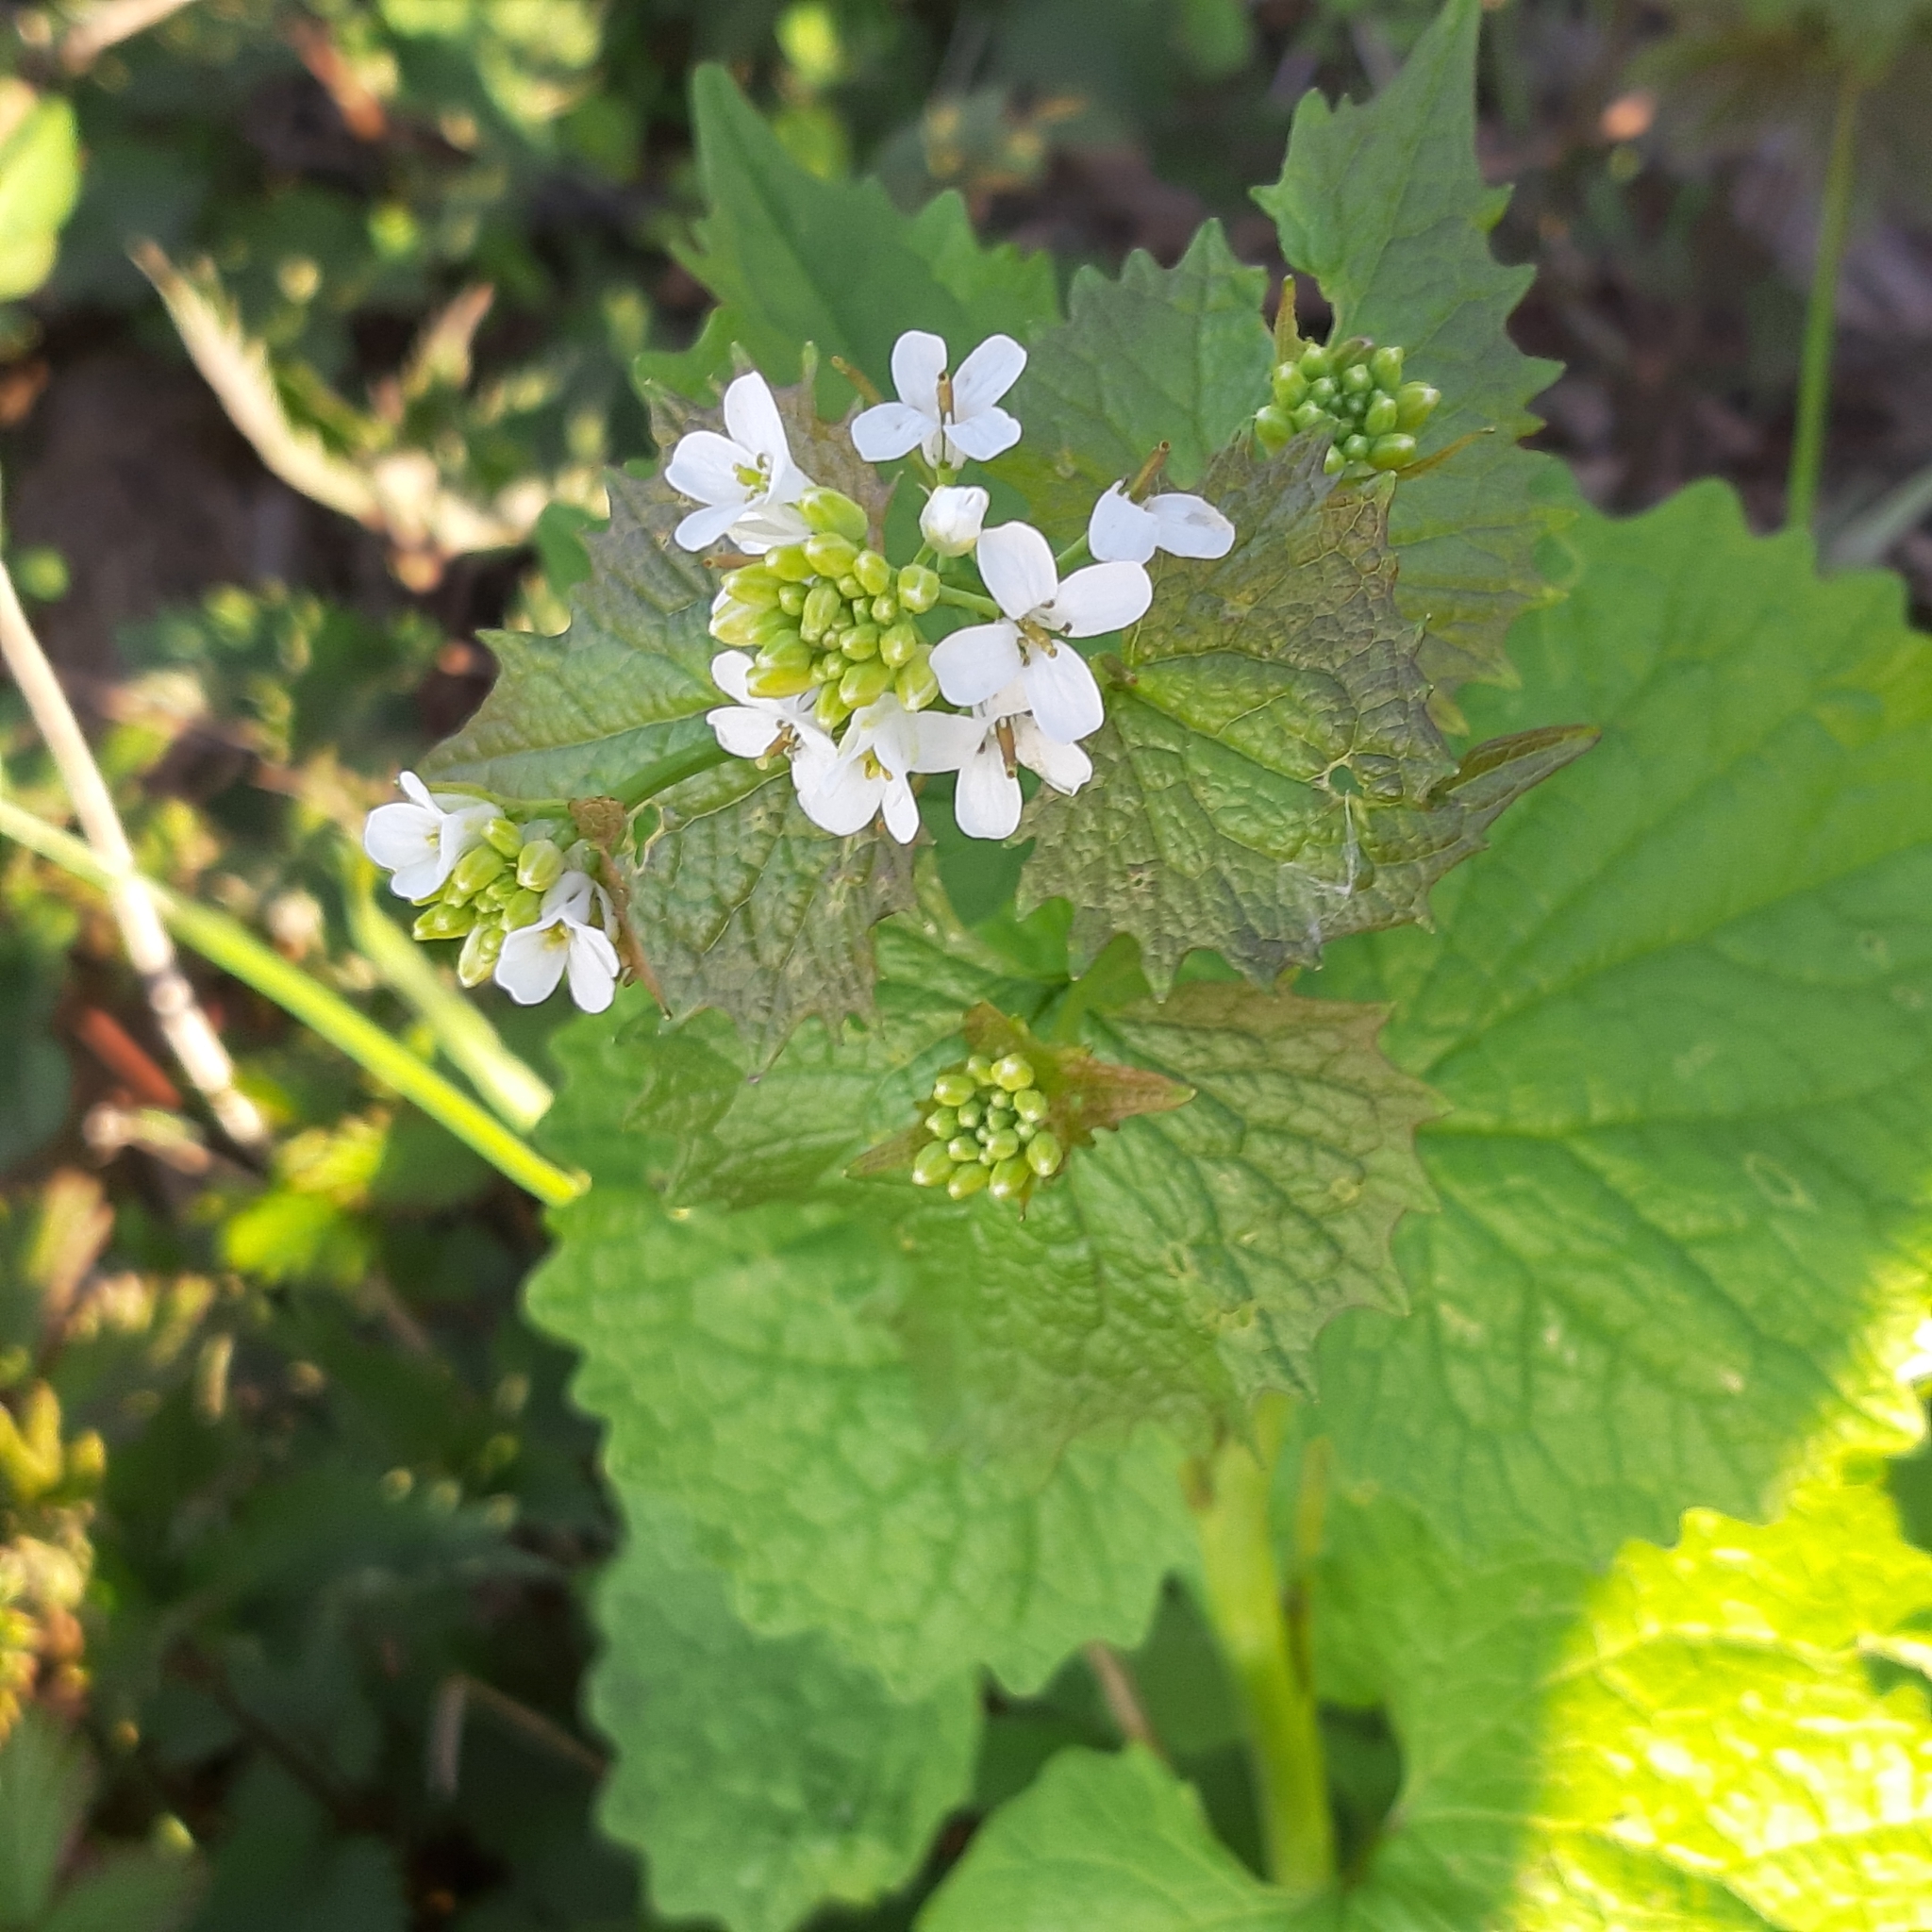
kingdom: Plantae
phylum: Tracheophyta
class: Magnoliopsida
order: Brassicales
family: Brassicaceae
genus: Alliaria
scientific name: Alliaria petiolata
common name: Garlic mustard
